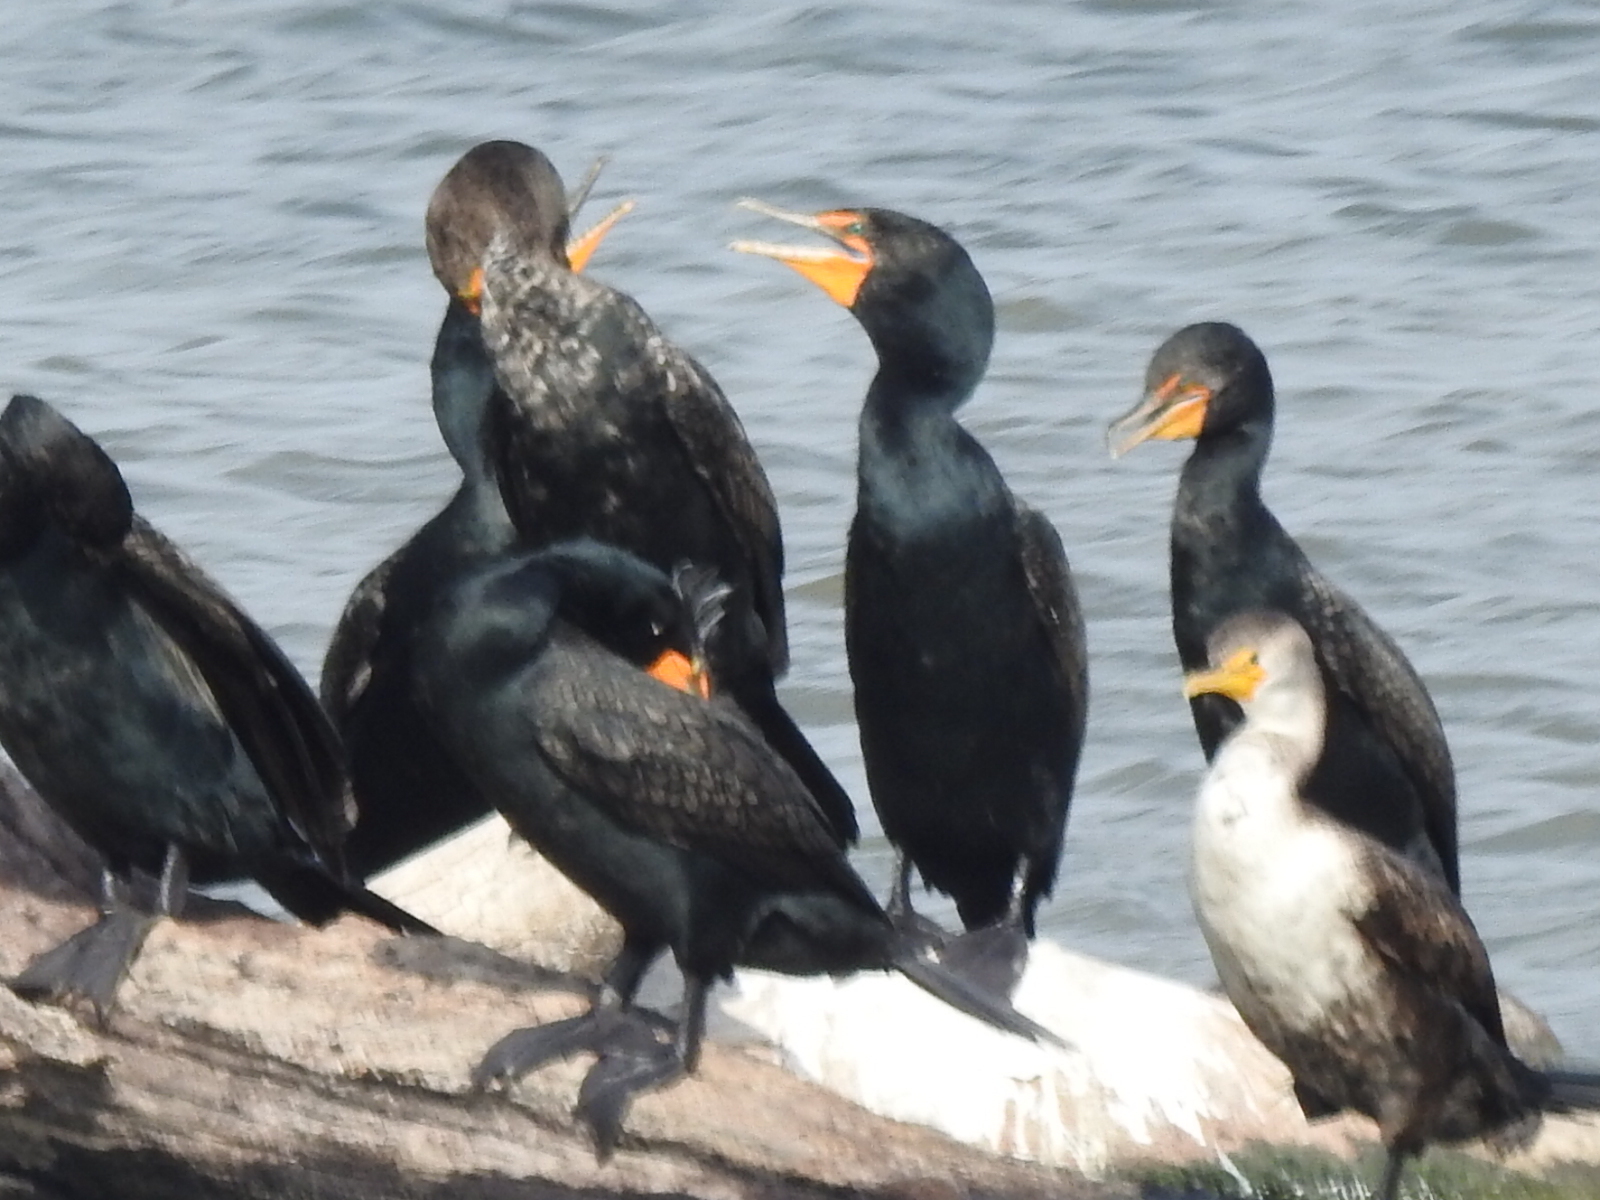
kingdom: Animalia
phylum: Chordata
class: Aves
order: Suliformes
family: Phalacrocoracidae
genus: Phalacrocorax
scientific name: Phalacrocorax auritus
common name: Double-crested cormorant
